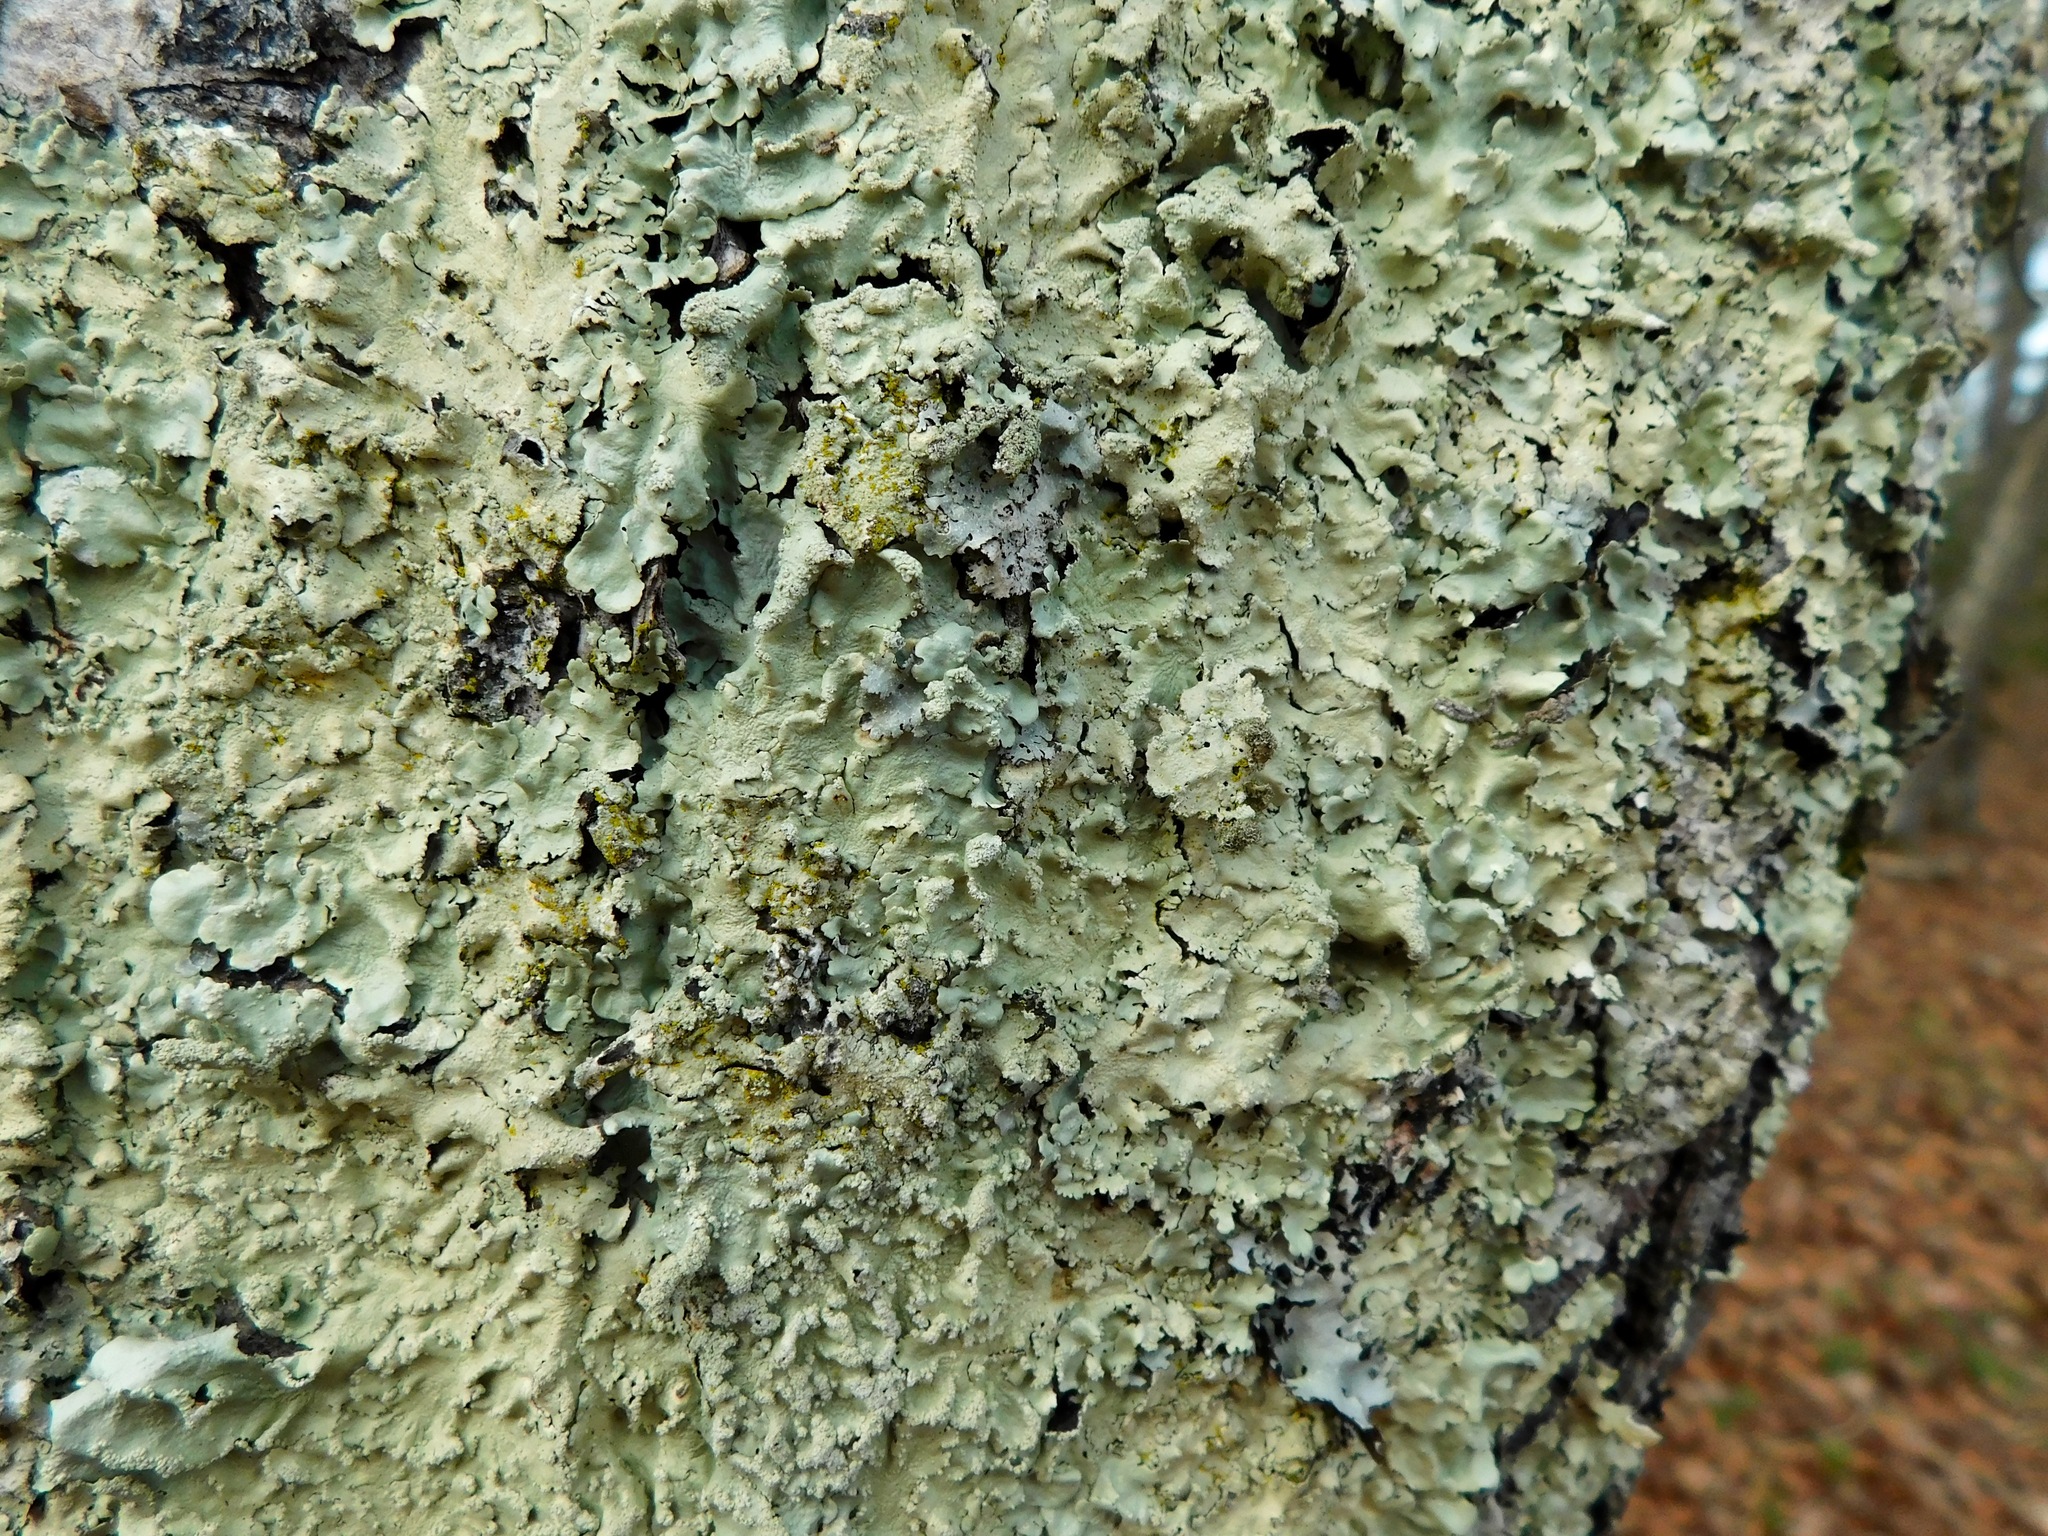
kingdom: Fungi
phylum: Ascomycota
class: Lecanoromycetes
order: Lecanorales
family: Parmeliaceae
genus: Flavoparmelia
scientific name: Flavoparmelia caperata
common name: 40-mile per hour lichen
